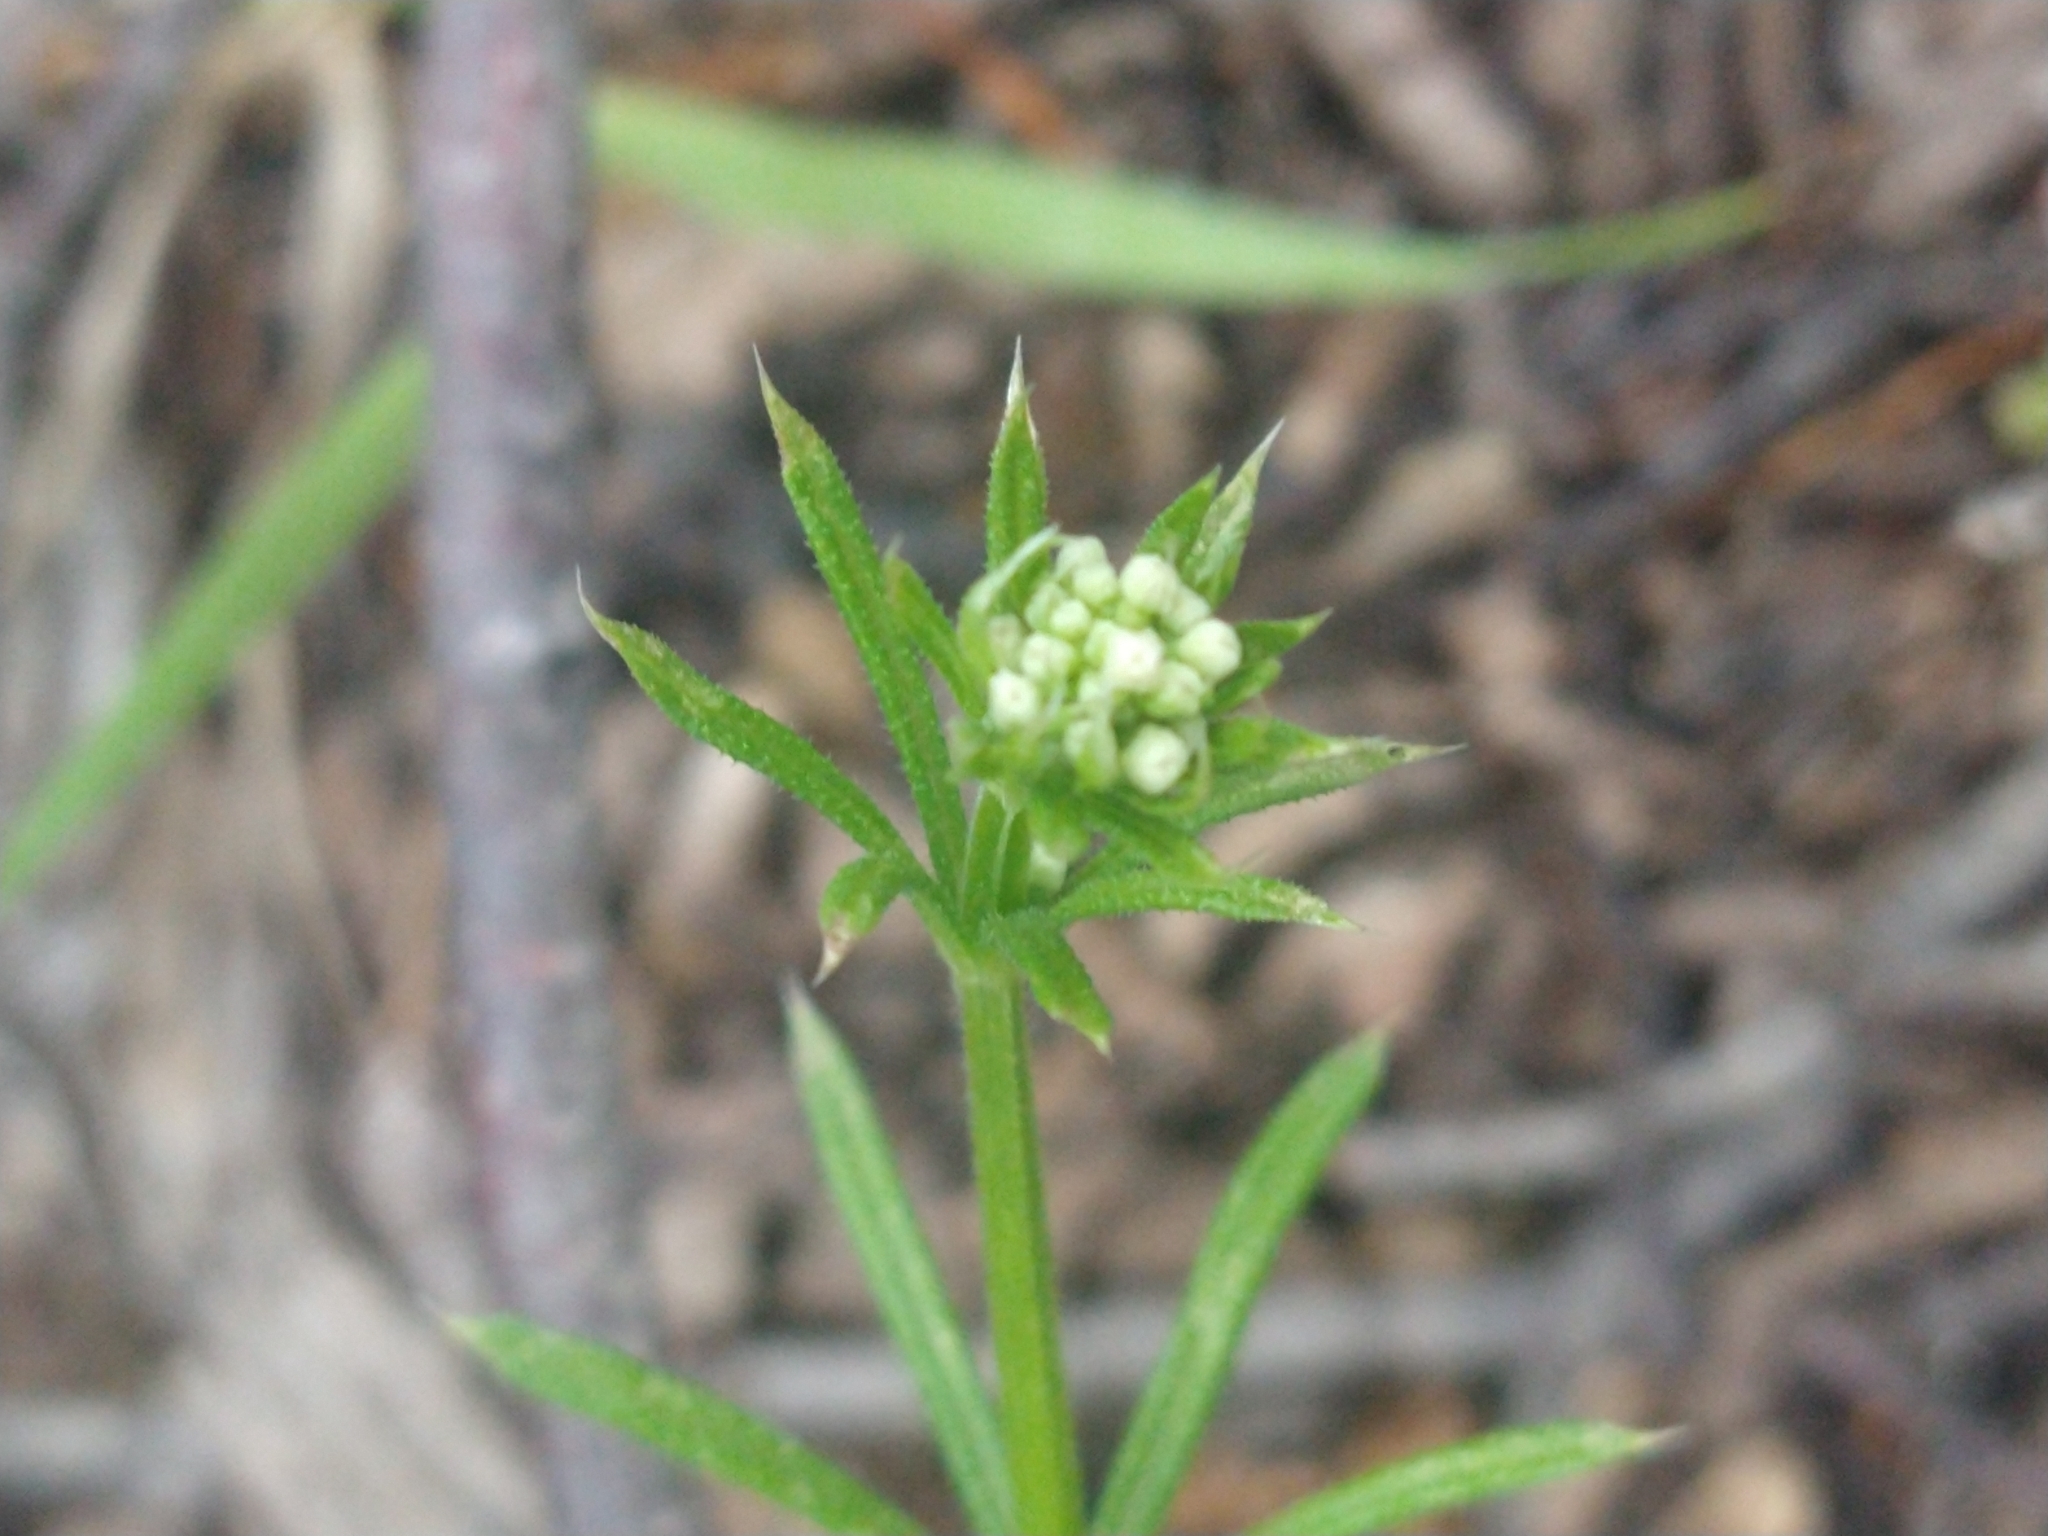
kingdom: Plantae
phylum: Tracheophyta
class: Magnoliopsida
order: Gentianales
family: Rubiaceae
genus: Galium
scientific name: Galium aparine
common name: Cleavers
